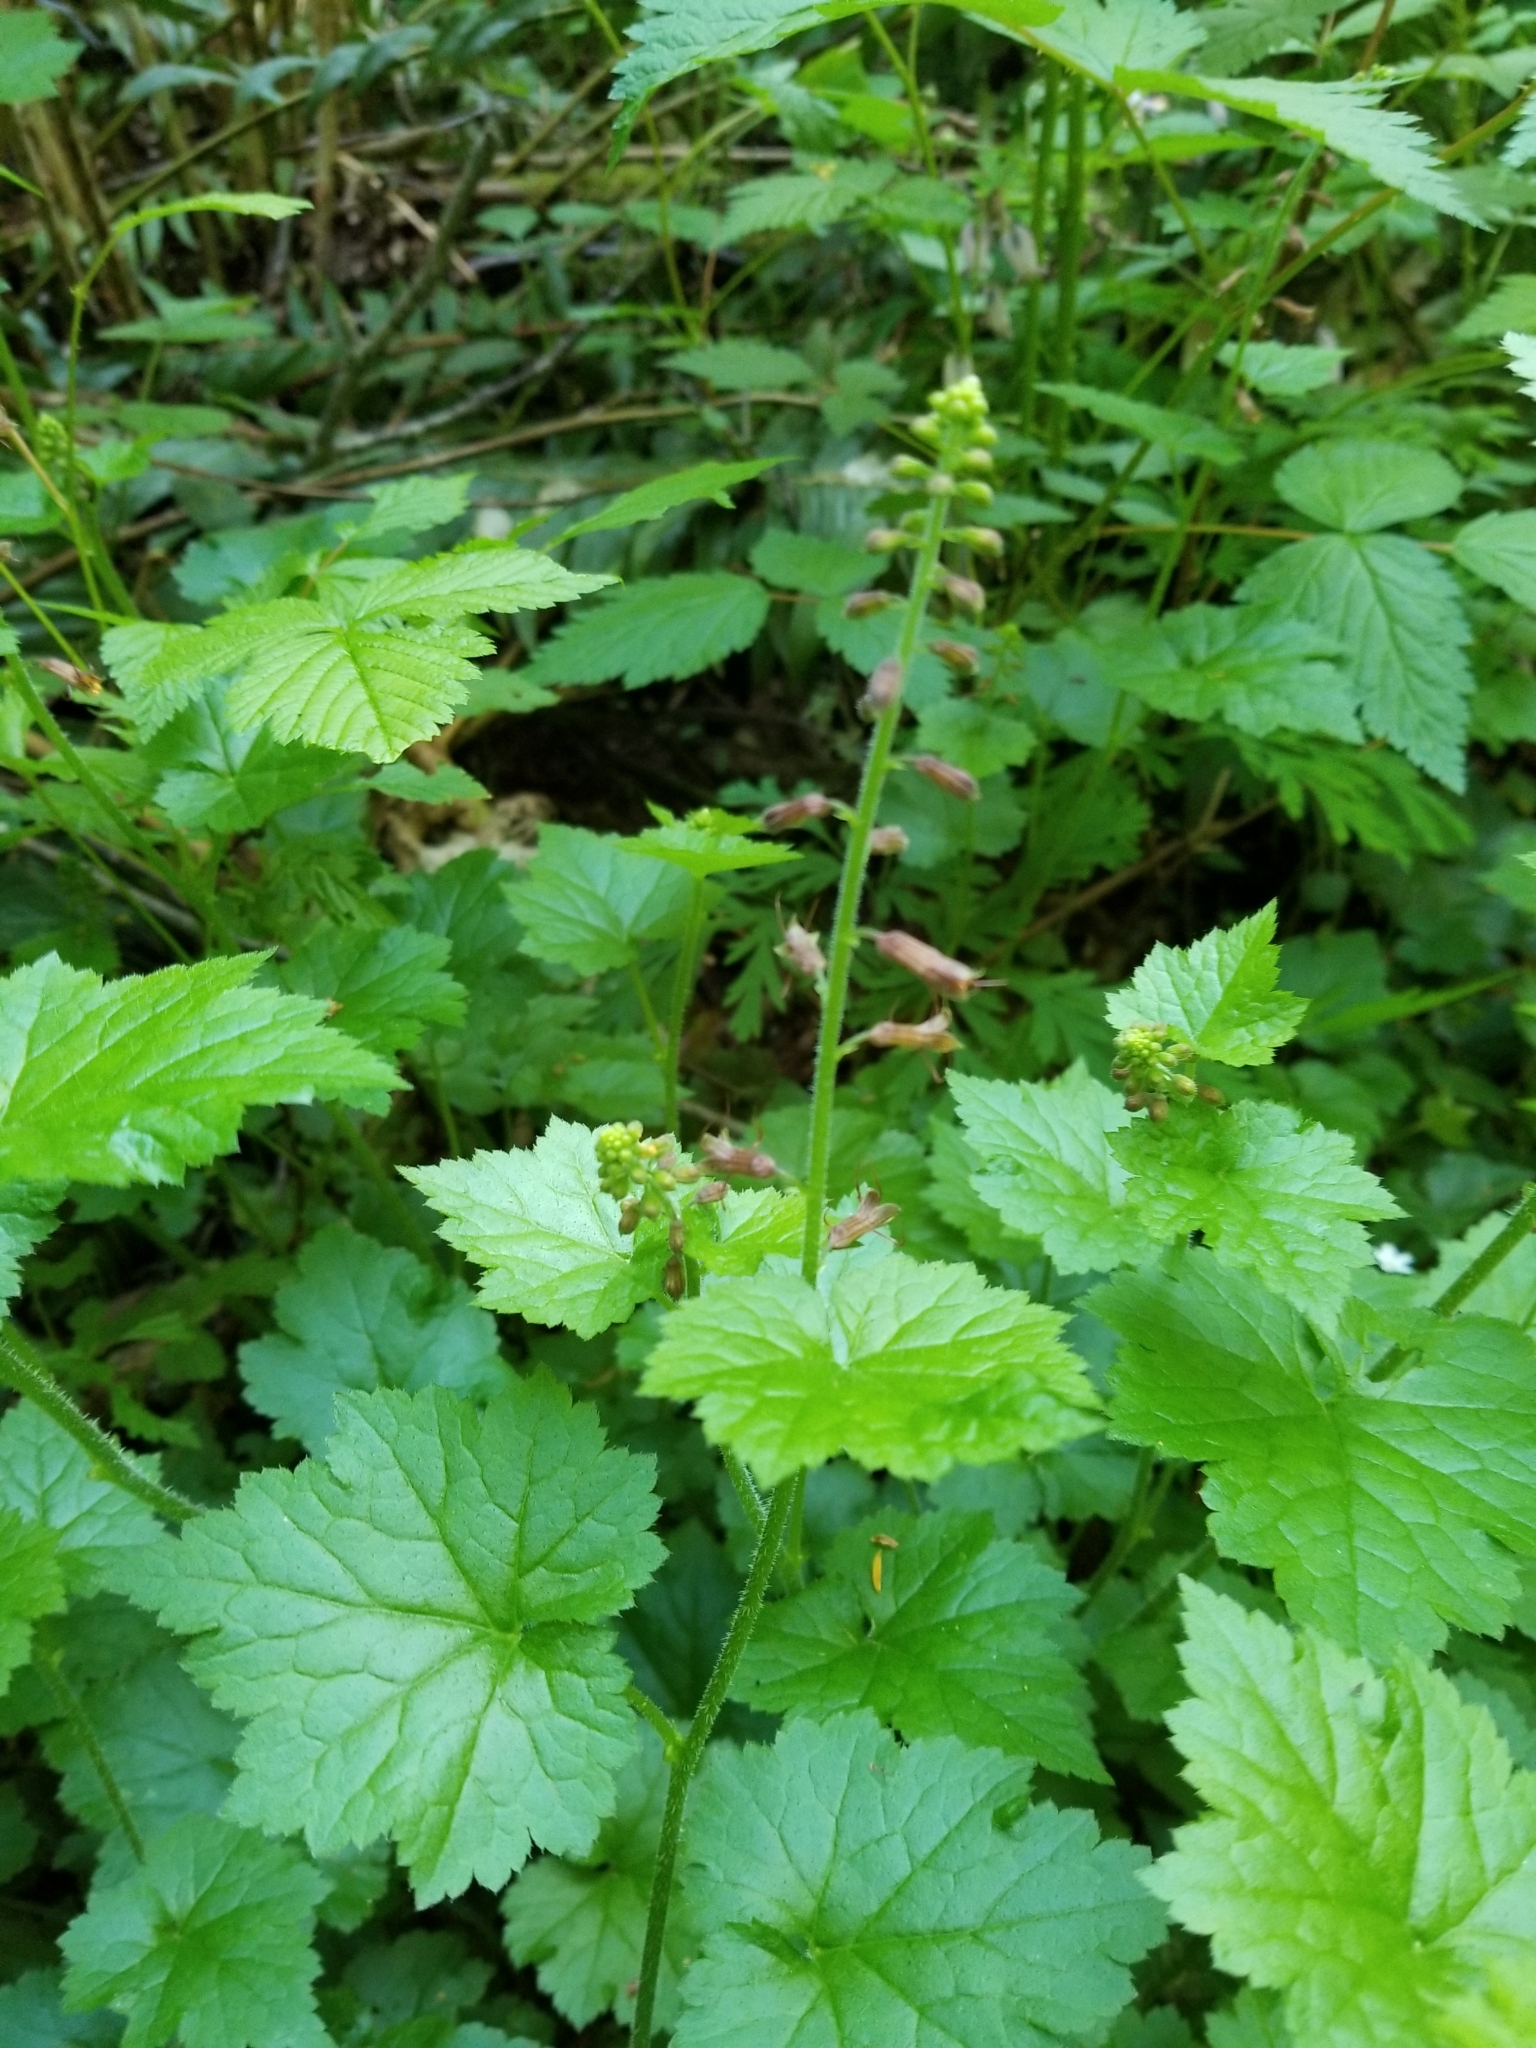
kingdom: Plantae
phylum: Tracheophyta
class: Magnoliopsida
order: Saxifragales
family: Saxifragaceae
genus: Tolmiea
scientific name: Tolmiea menziesii
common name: Pick-a-back-plant
